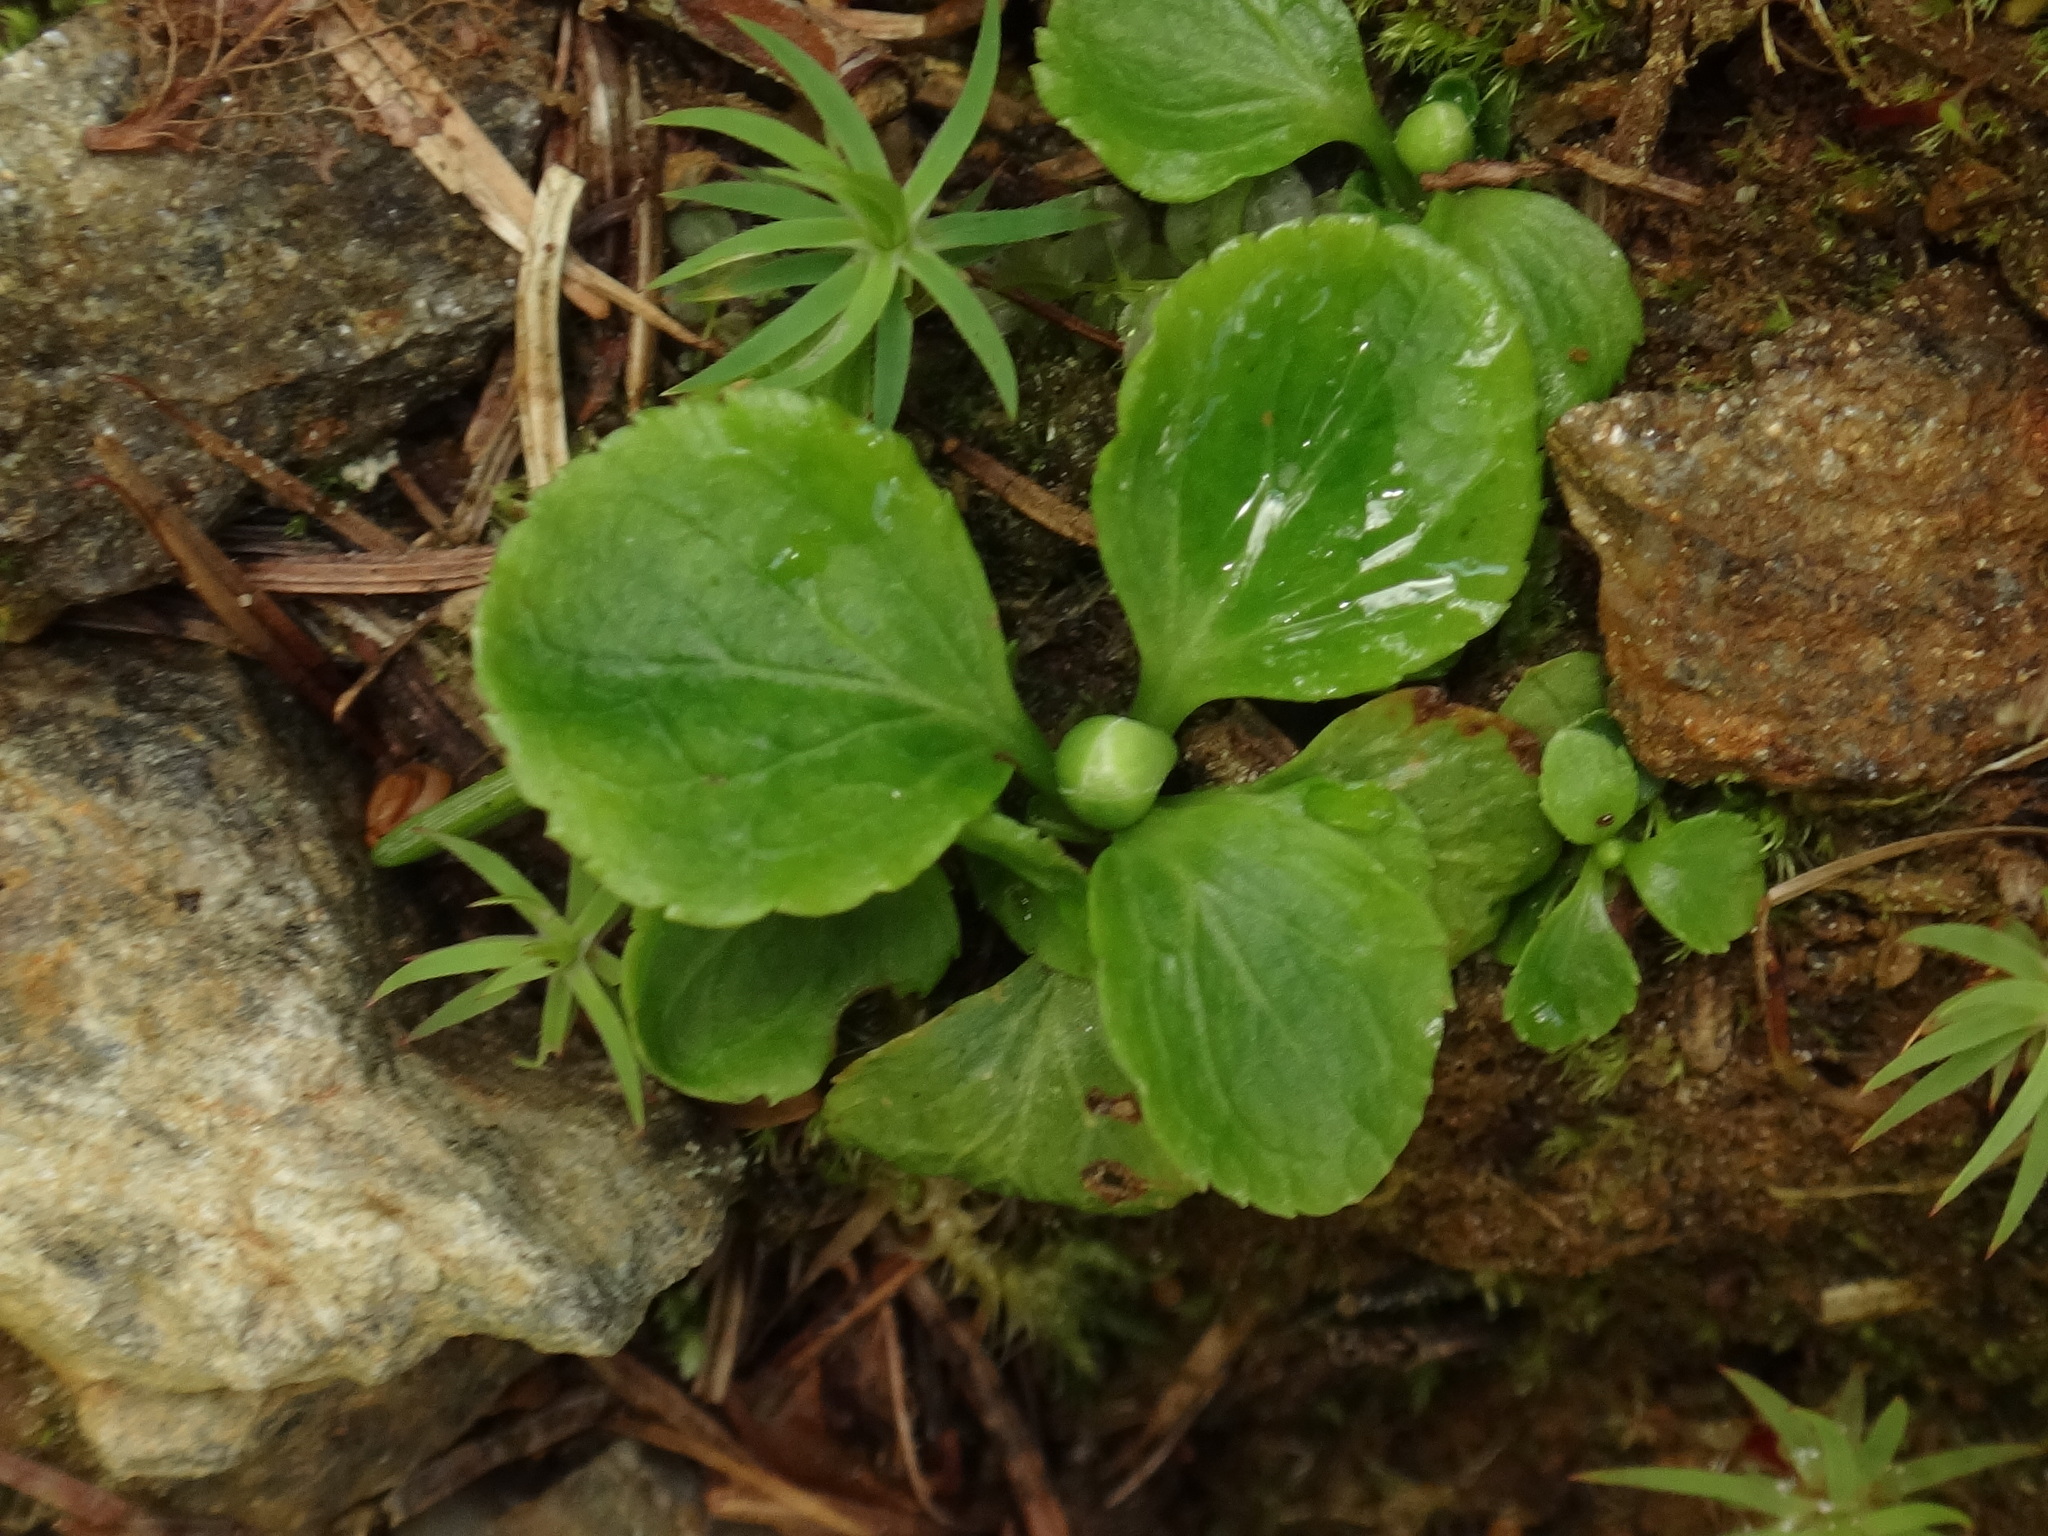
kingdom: Plantae
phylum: Tracheophyta
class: Magnoliopsida
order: Ericales
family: Ericaceae
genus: Moneses
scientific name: Moneses uniflora
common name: One-flowered wintergreen
